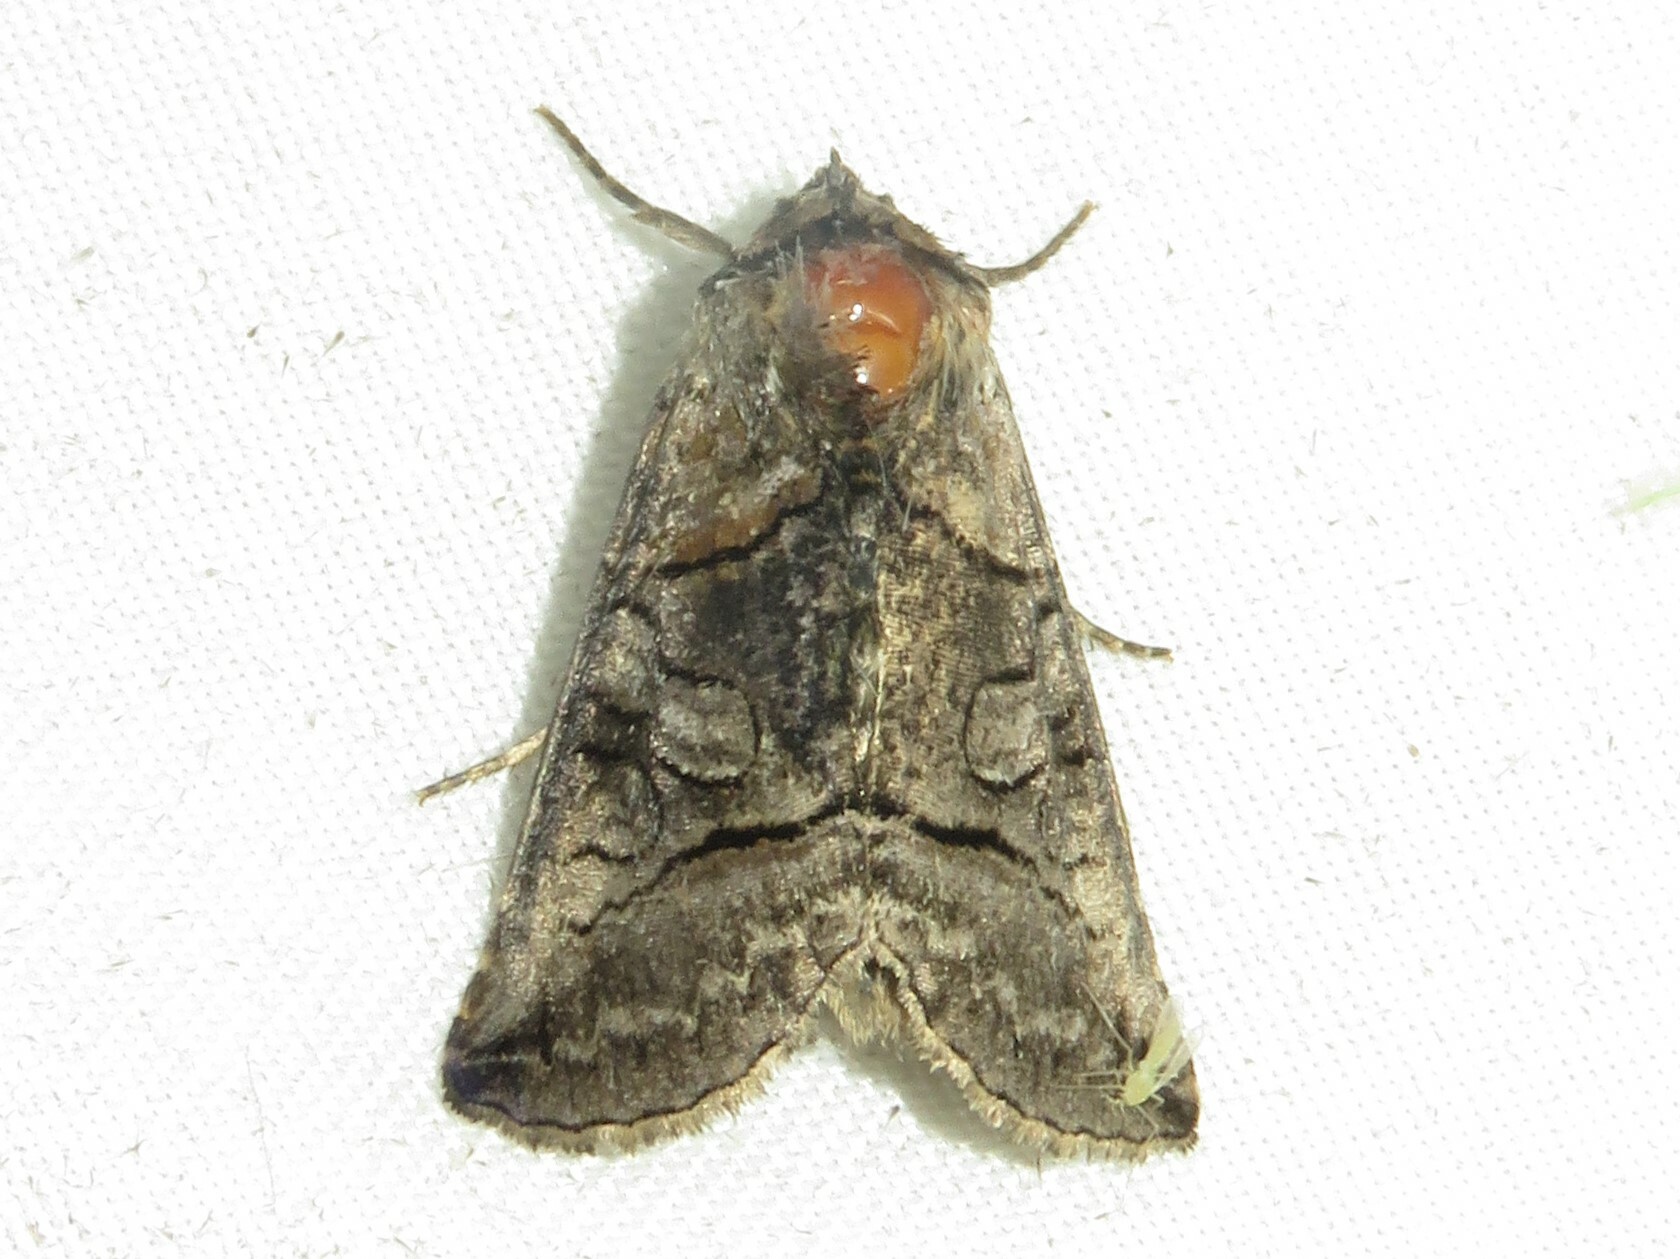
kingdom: Animalia
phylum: Arthropoda
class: Insecta
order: Lepidoptera
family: Noctuidae
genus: Abrostola
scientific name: Abrostola urentis
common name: Spectacled nettle moth
